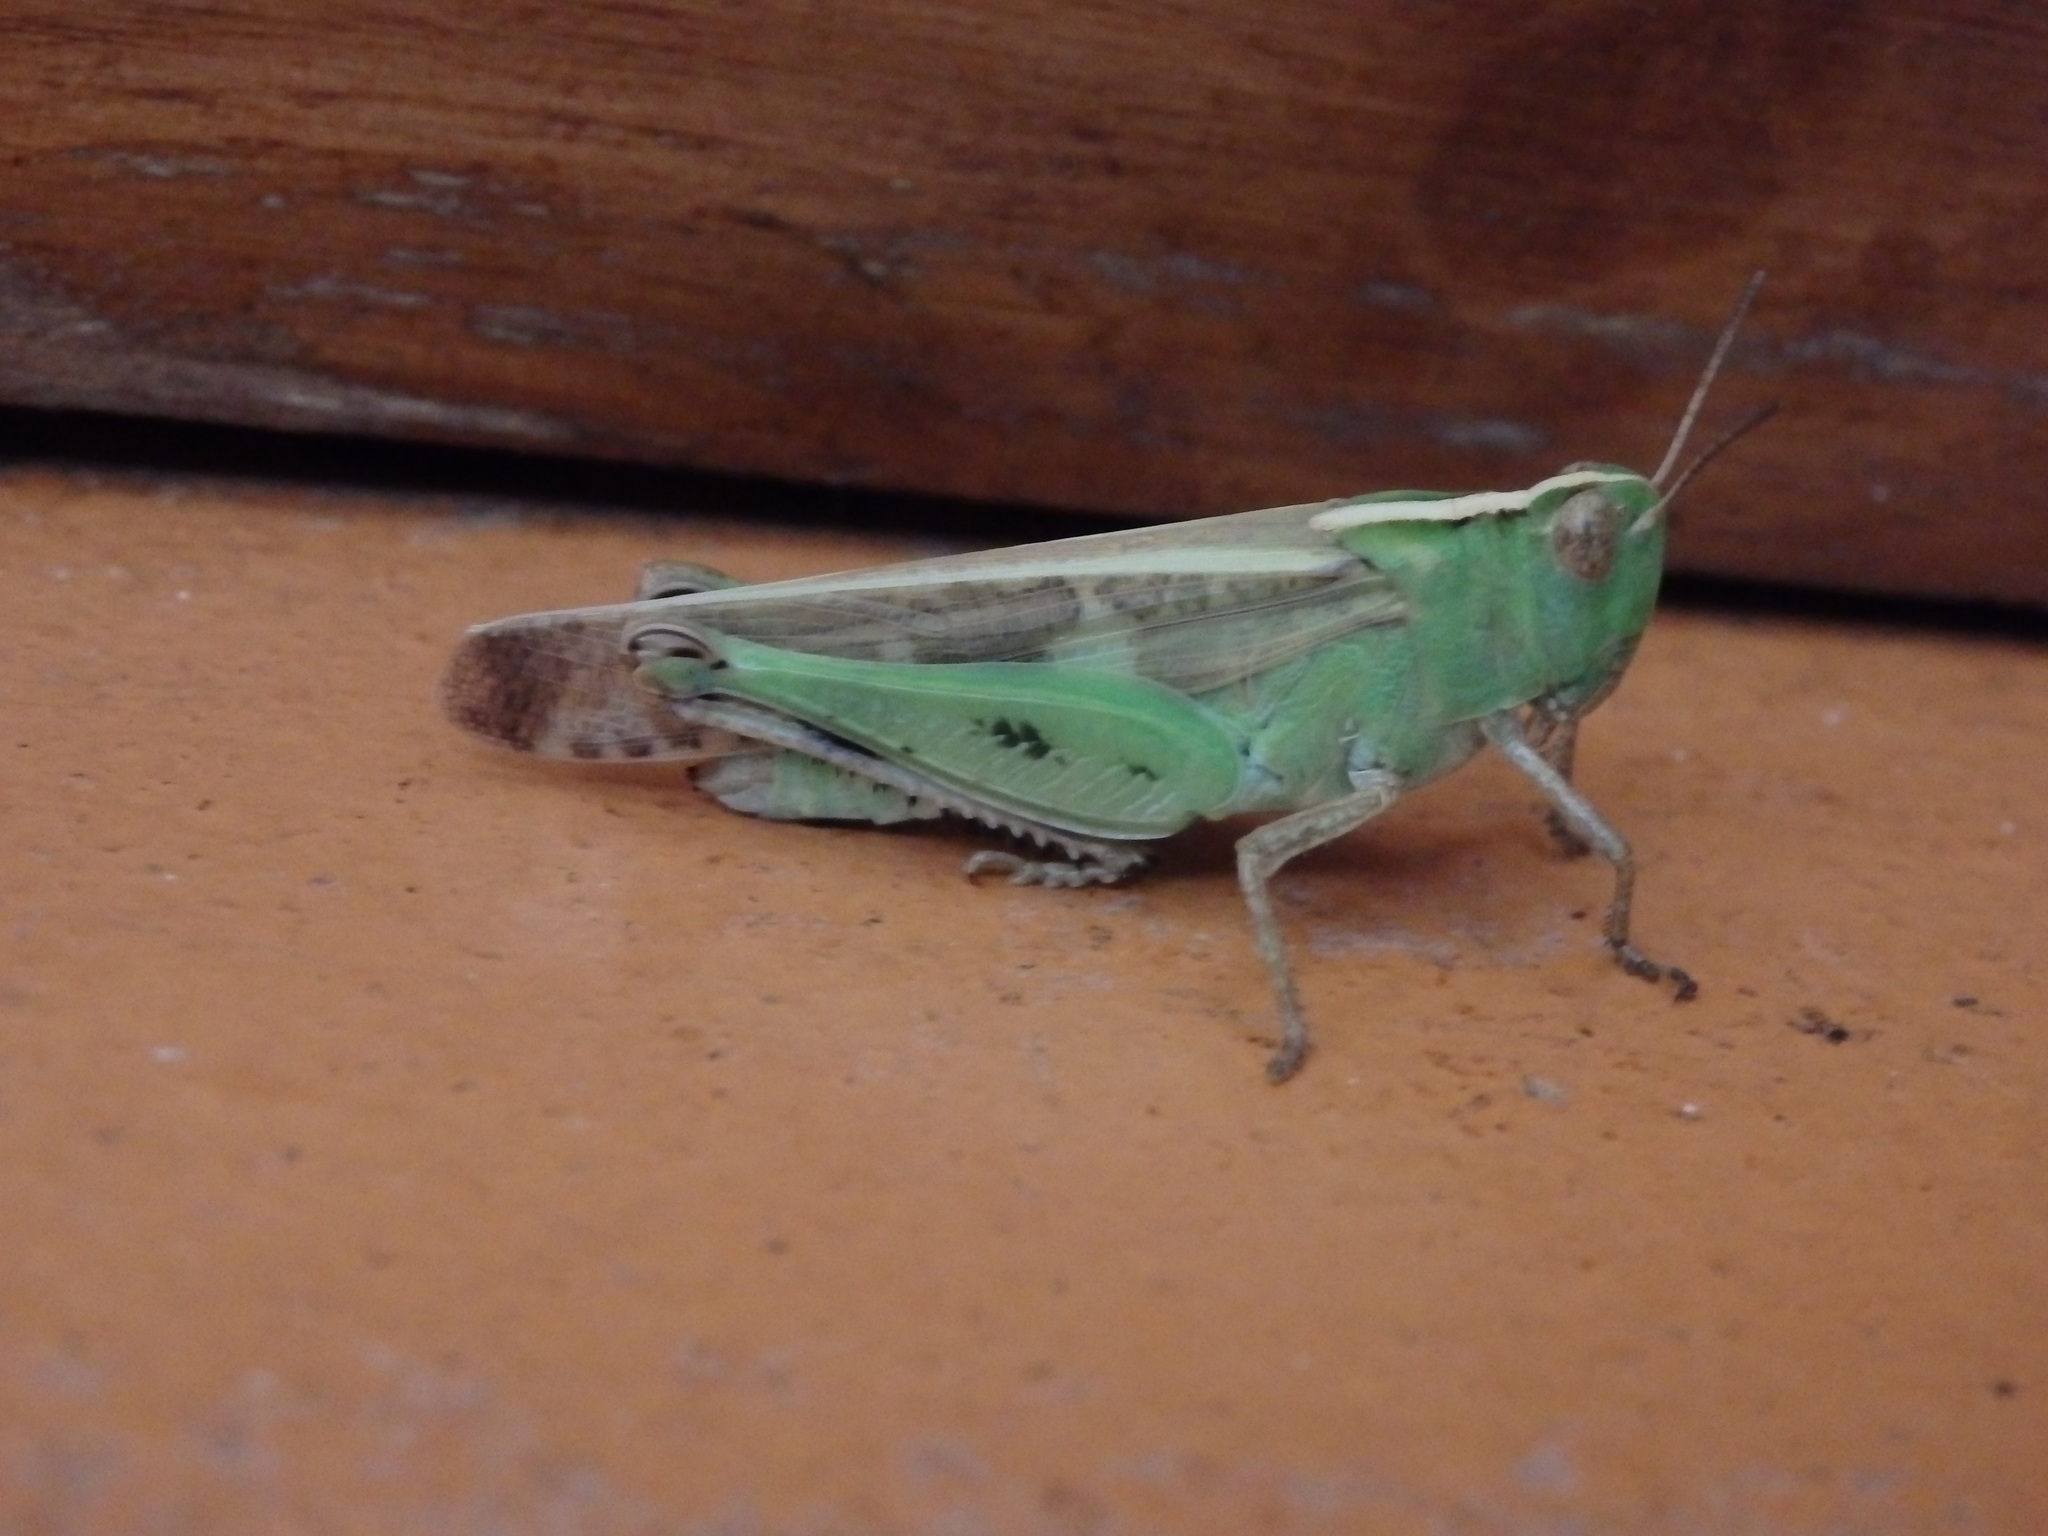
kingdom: Animalia
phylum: Arthropoda
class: Insecta
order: Orthoptera
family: Acrididae
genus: Aiolopus
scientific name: Aiolopus strepens
